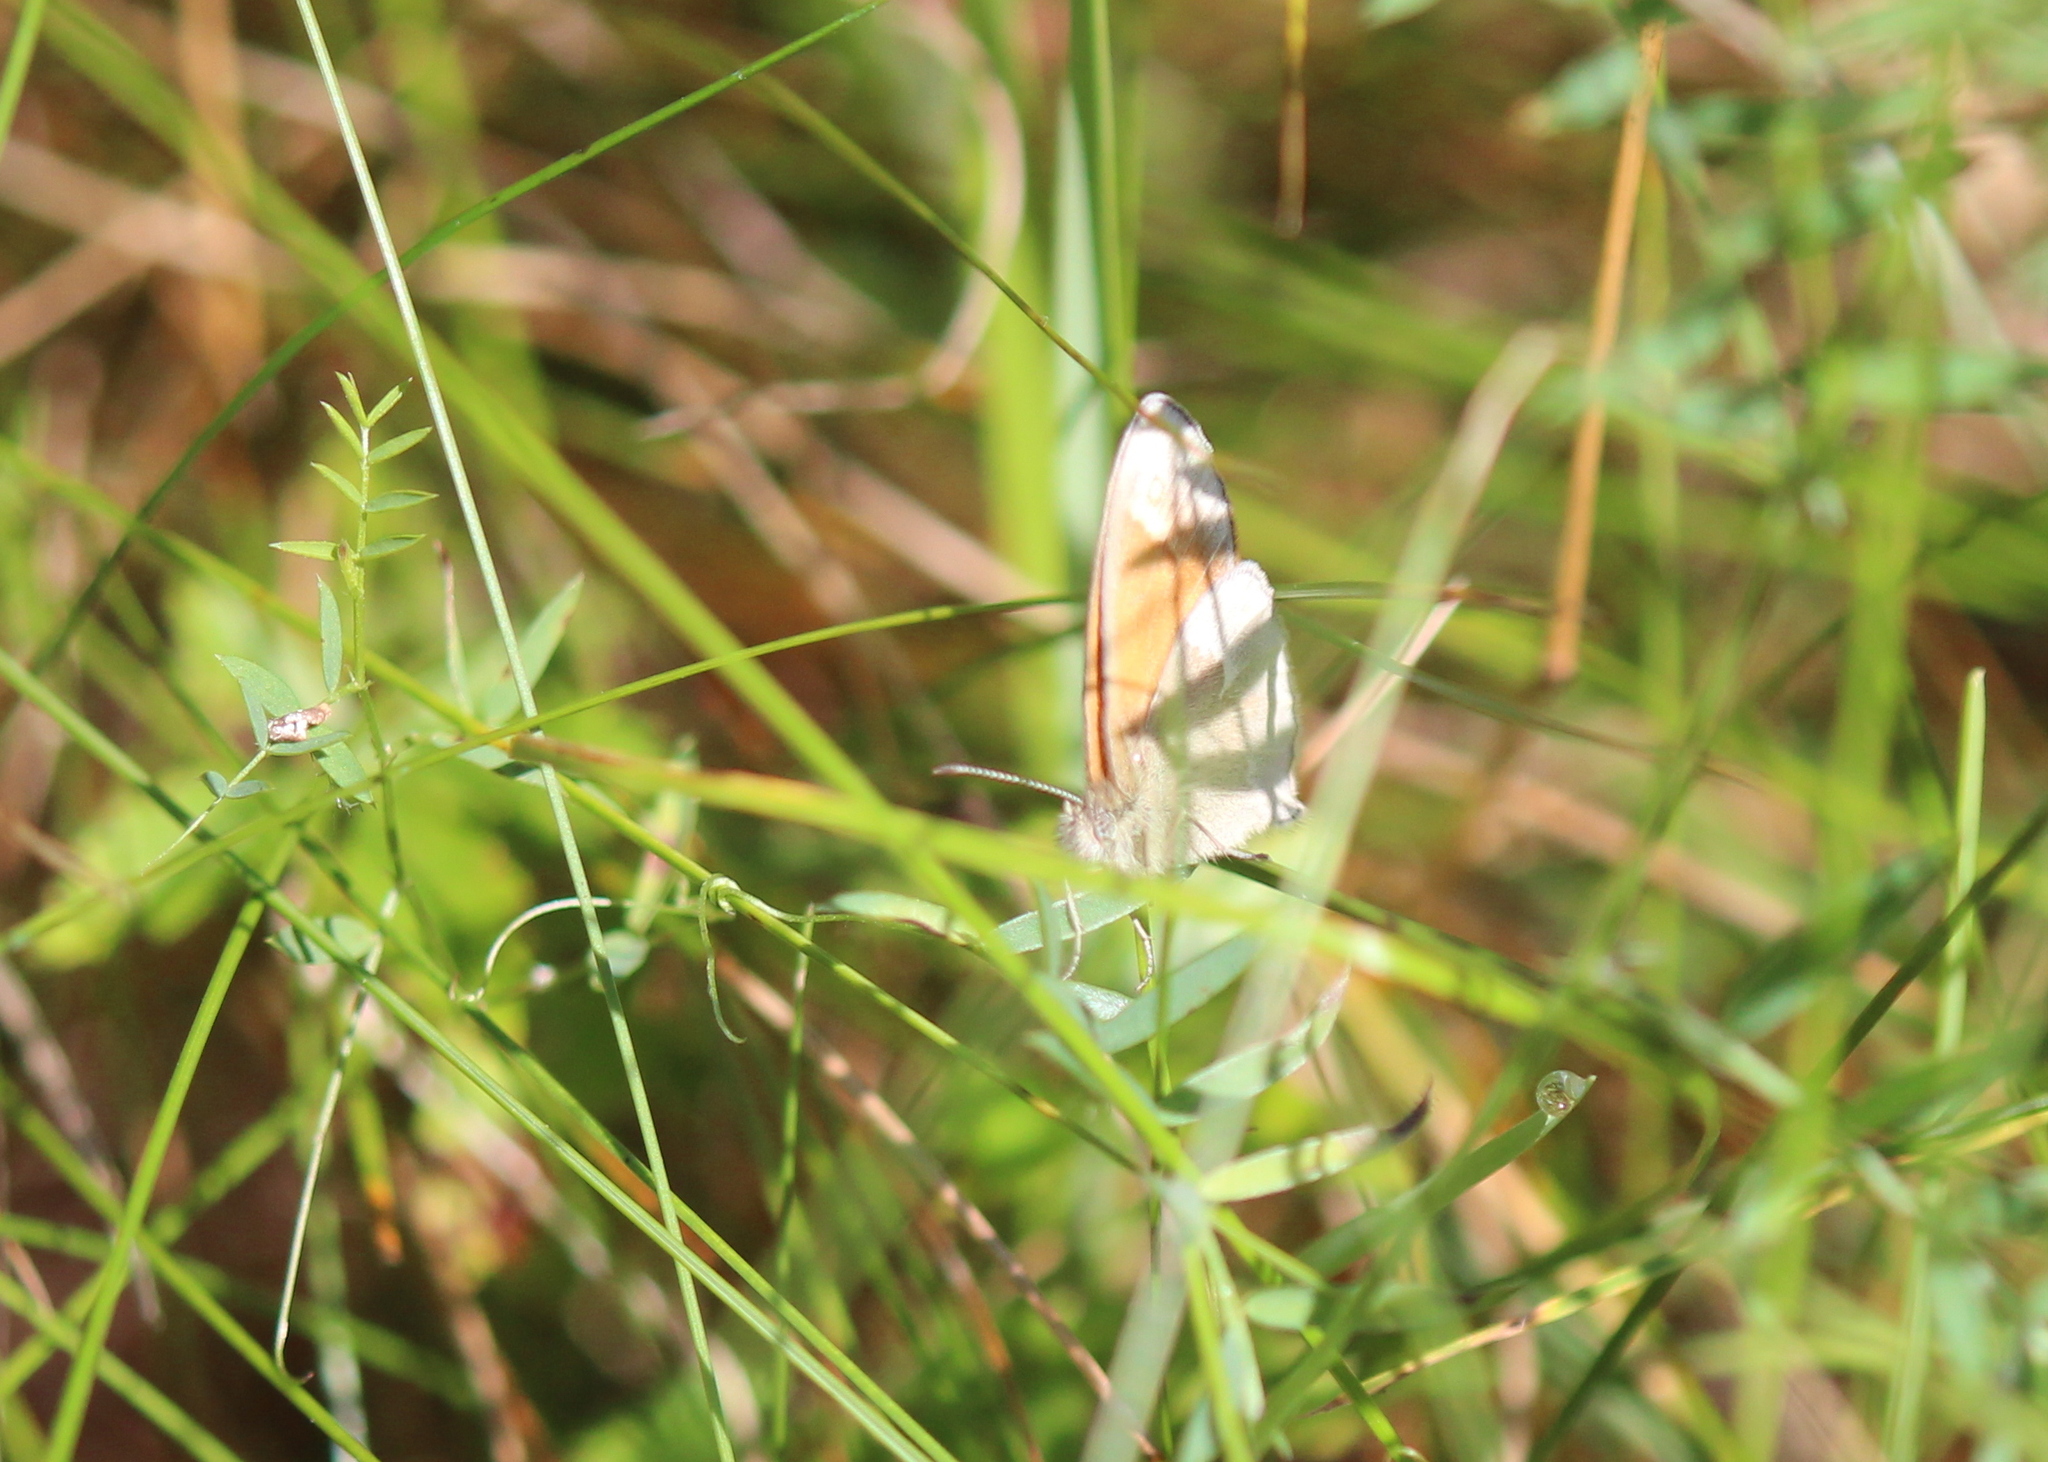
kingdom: Animalia
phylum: Arthropoda
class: Insecta
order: Lepidoptera
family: Nymphalidae
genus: Coenonympha
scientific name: Coenonympha california
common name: Common ringlet
